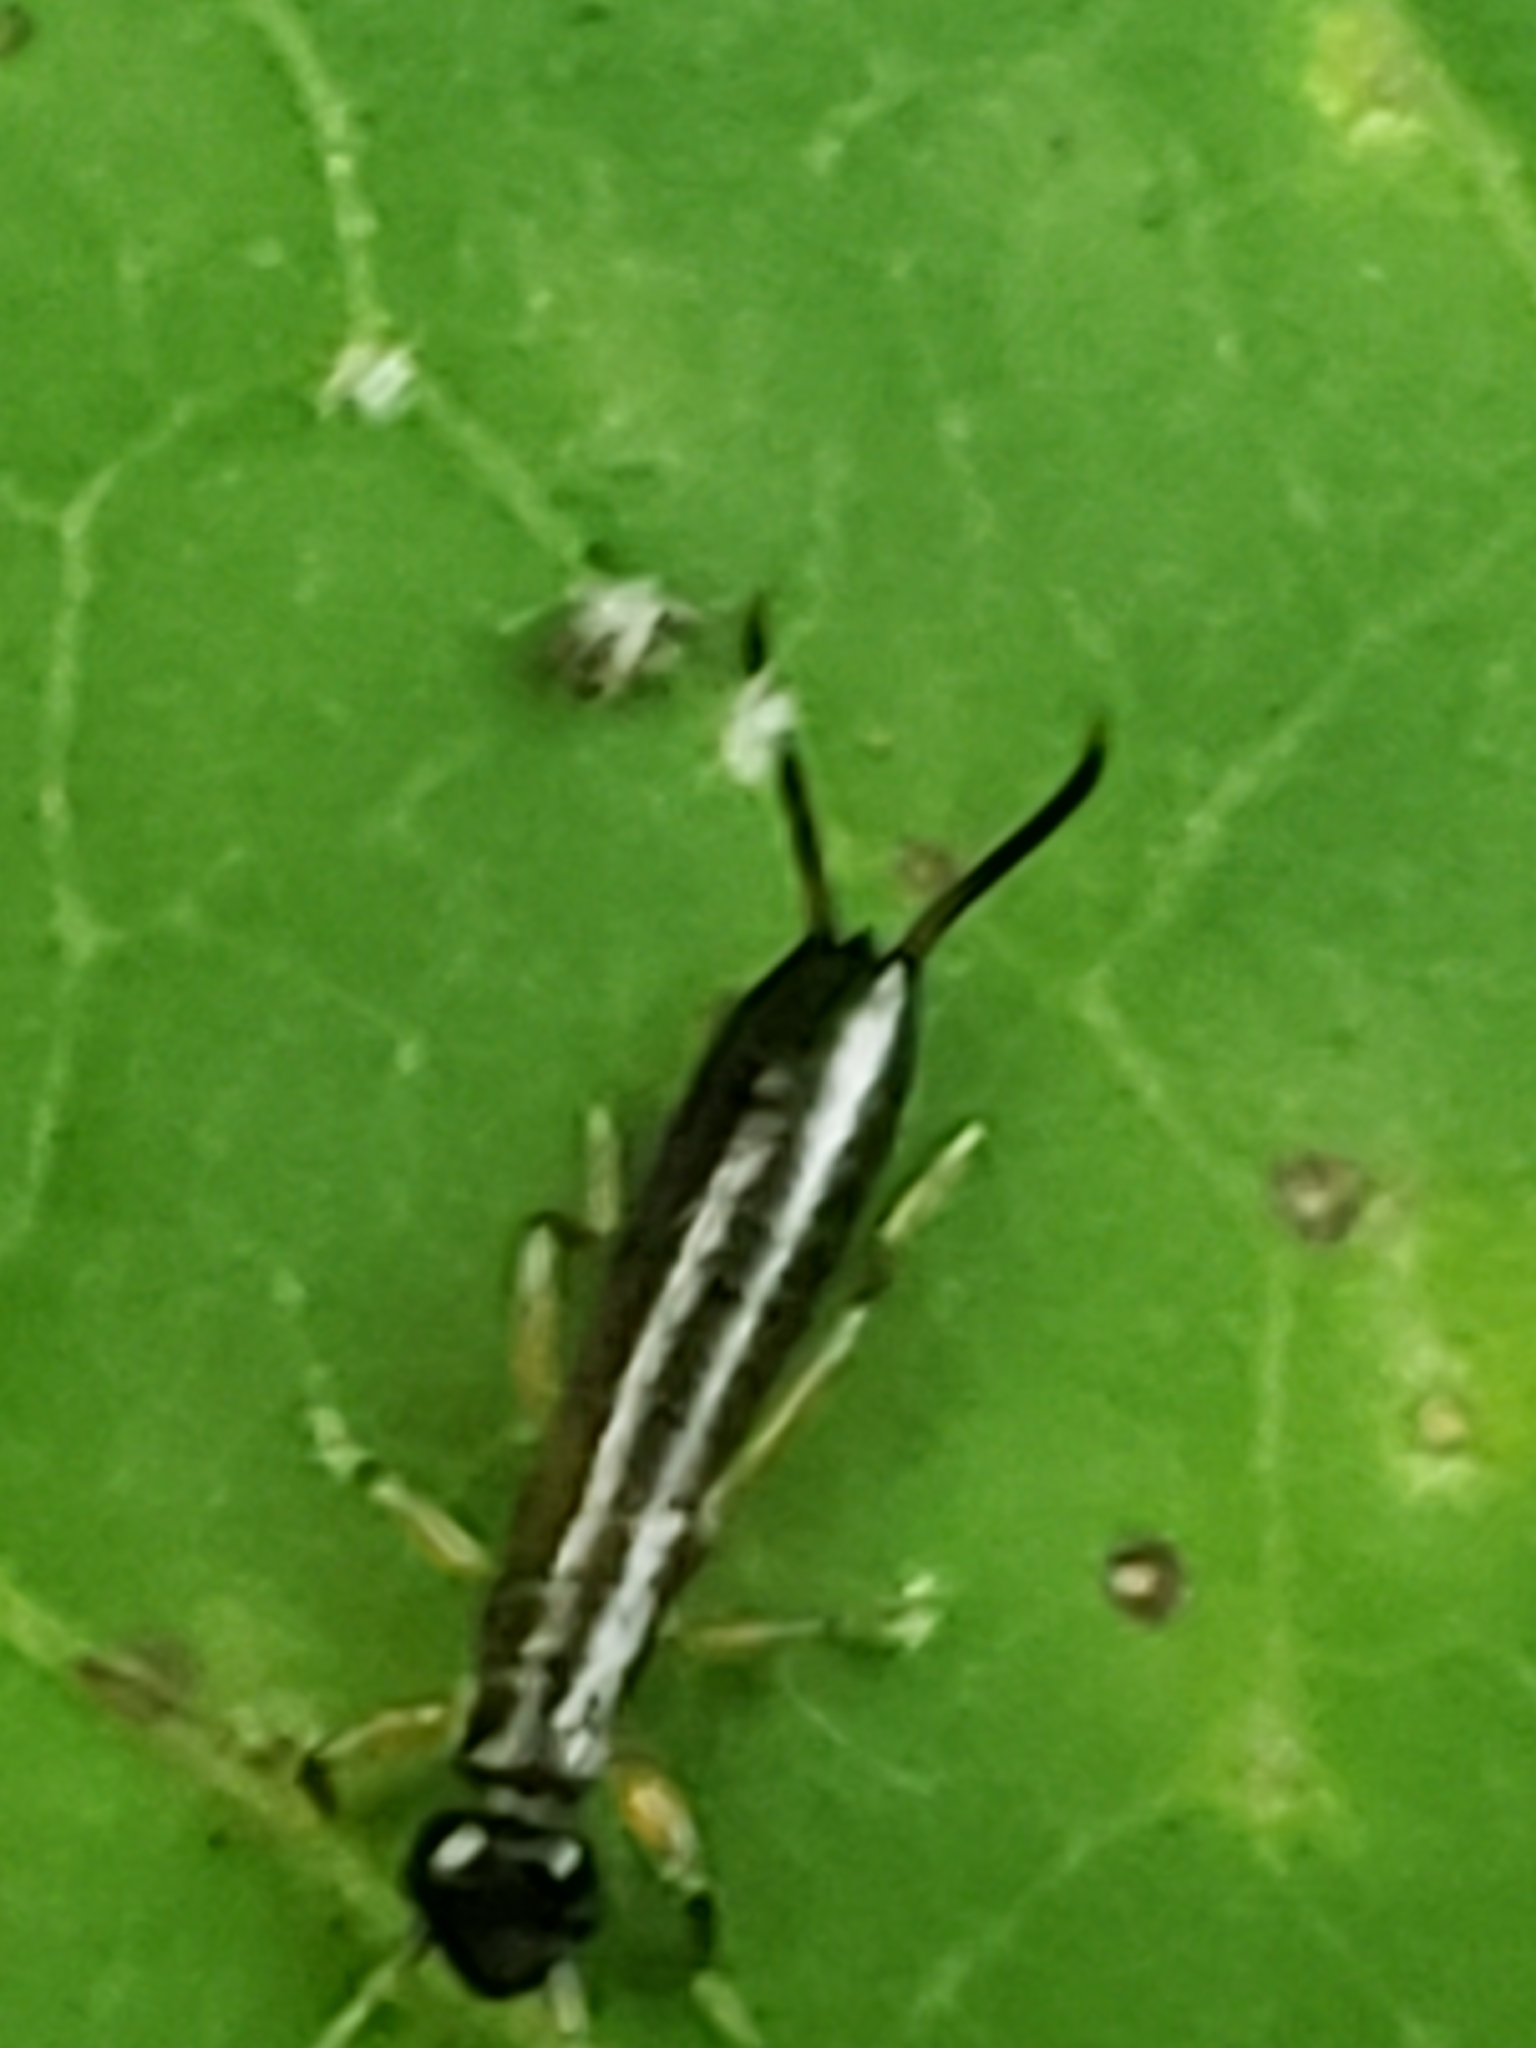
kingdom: Animalia
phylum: Arthropoda
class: Insecta
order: Dermaptera
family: Forficulidae
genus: Doru
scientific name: Doru aculeatum
